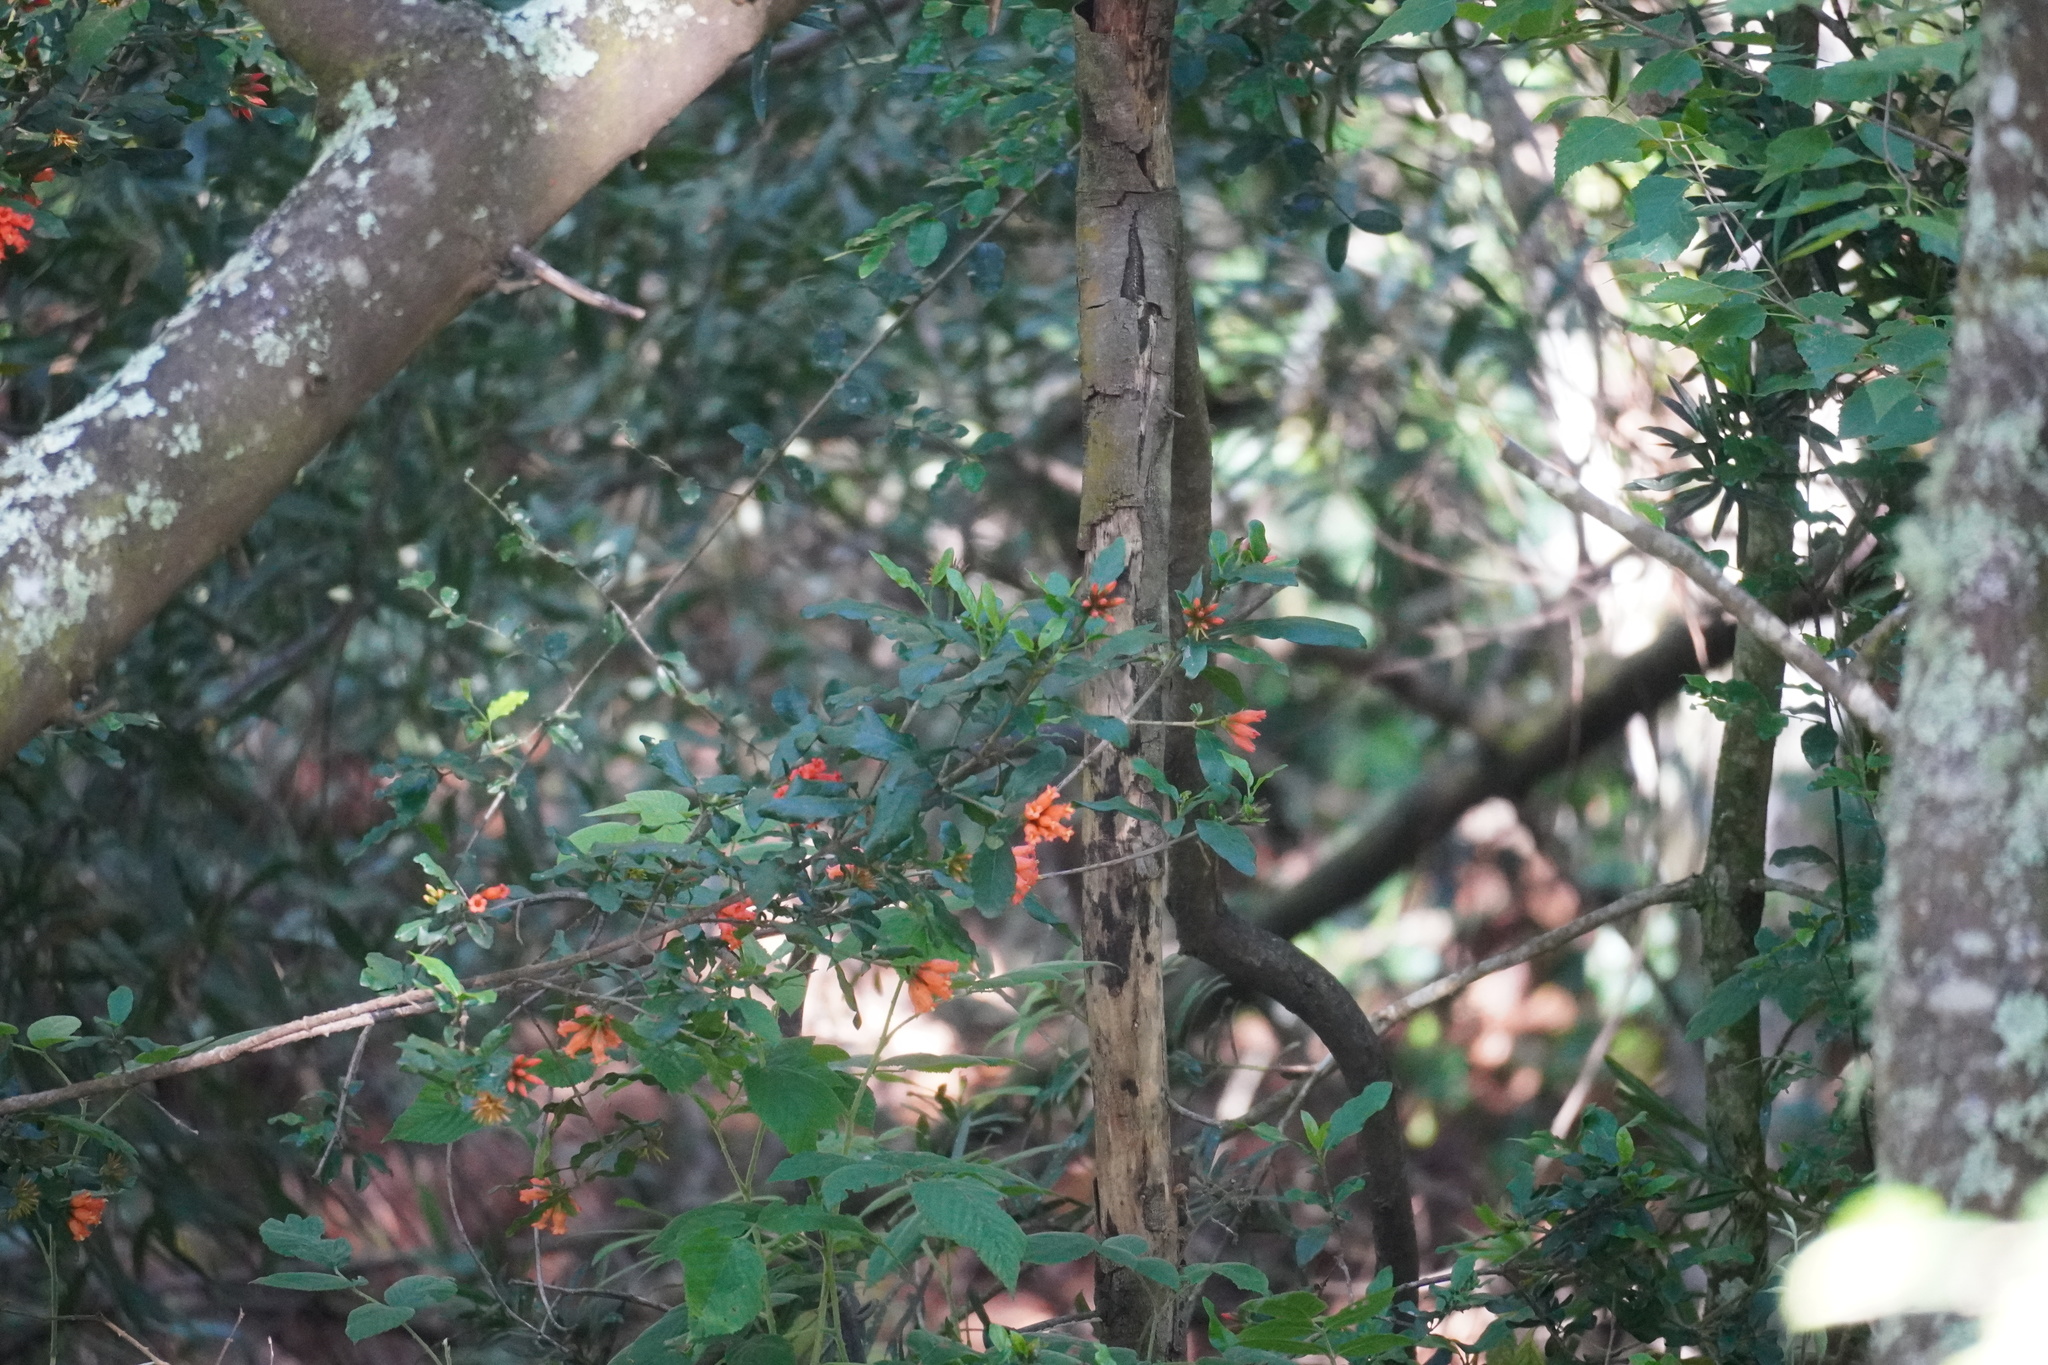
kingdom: Plantae
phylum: Tracheophyta
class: Magnoliopsida
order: Gentianales
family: Rubiaceae
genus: Burchellia
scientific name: Burchellia bubalina
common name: Wild pomegranate
